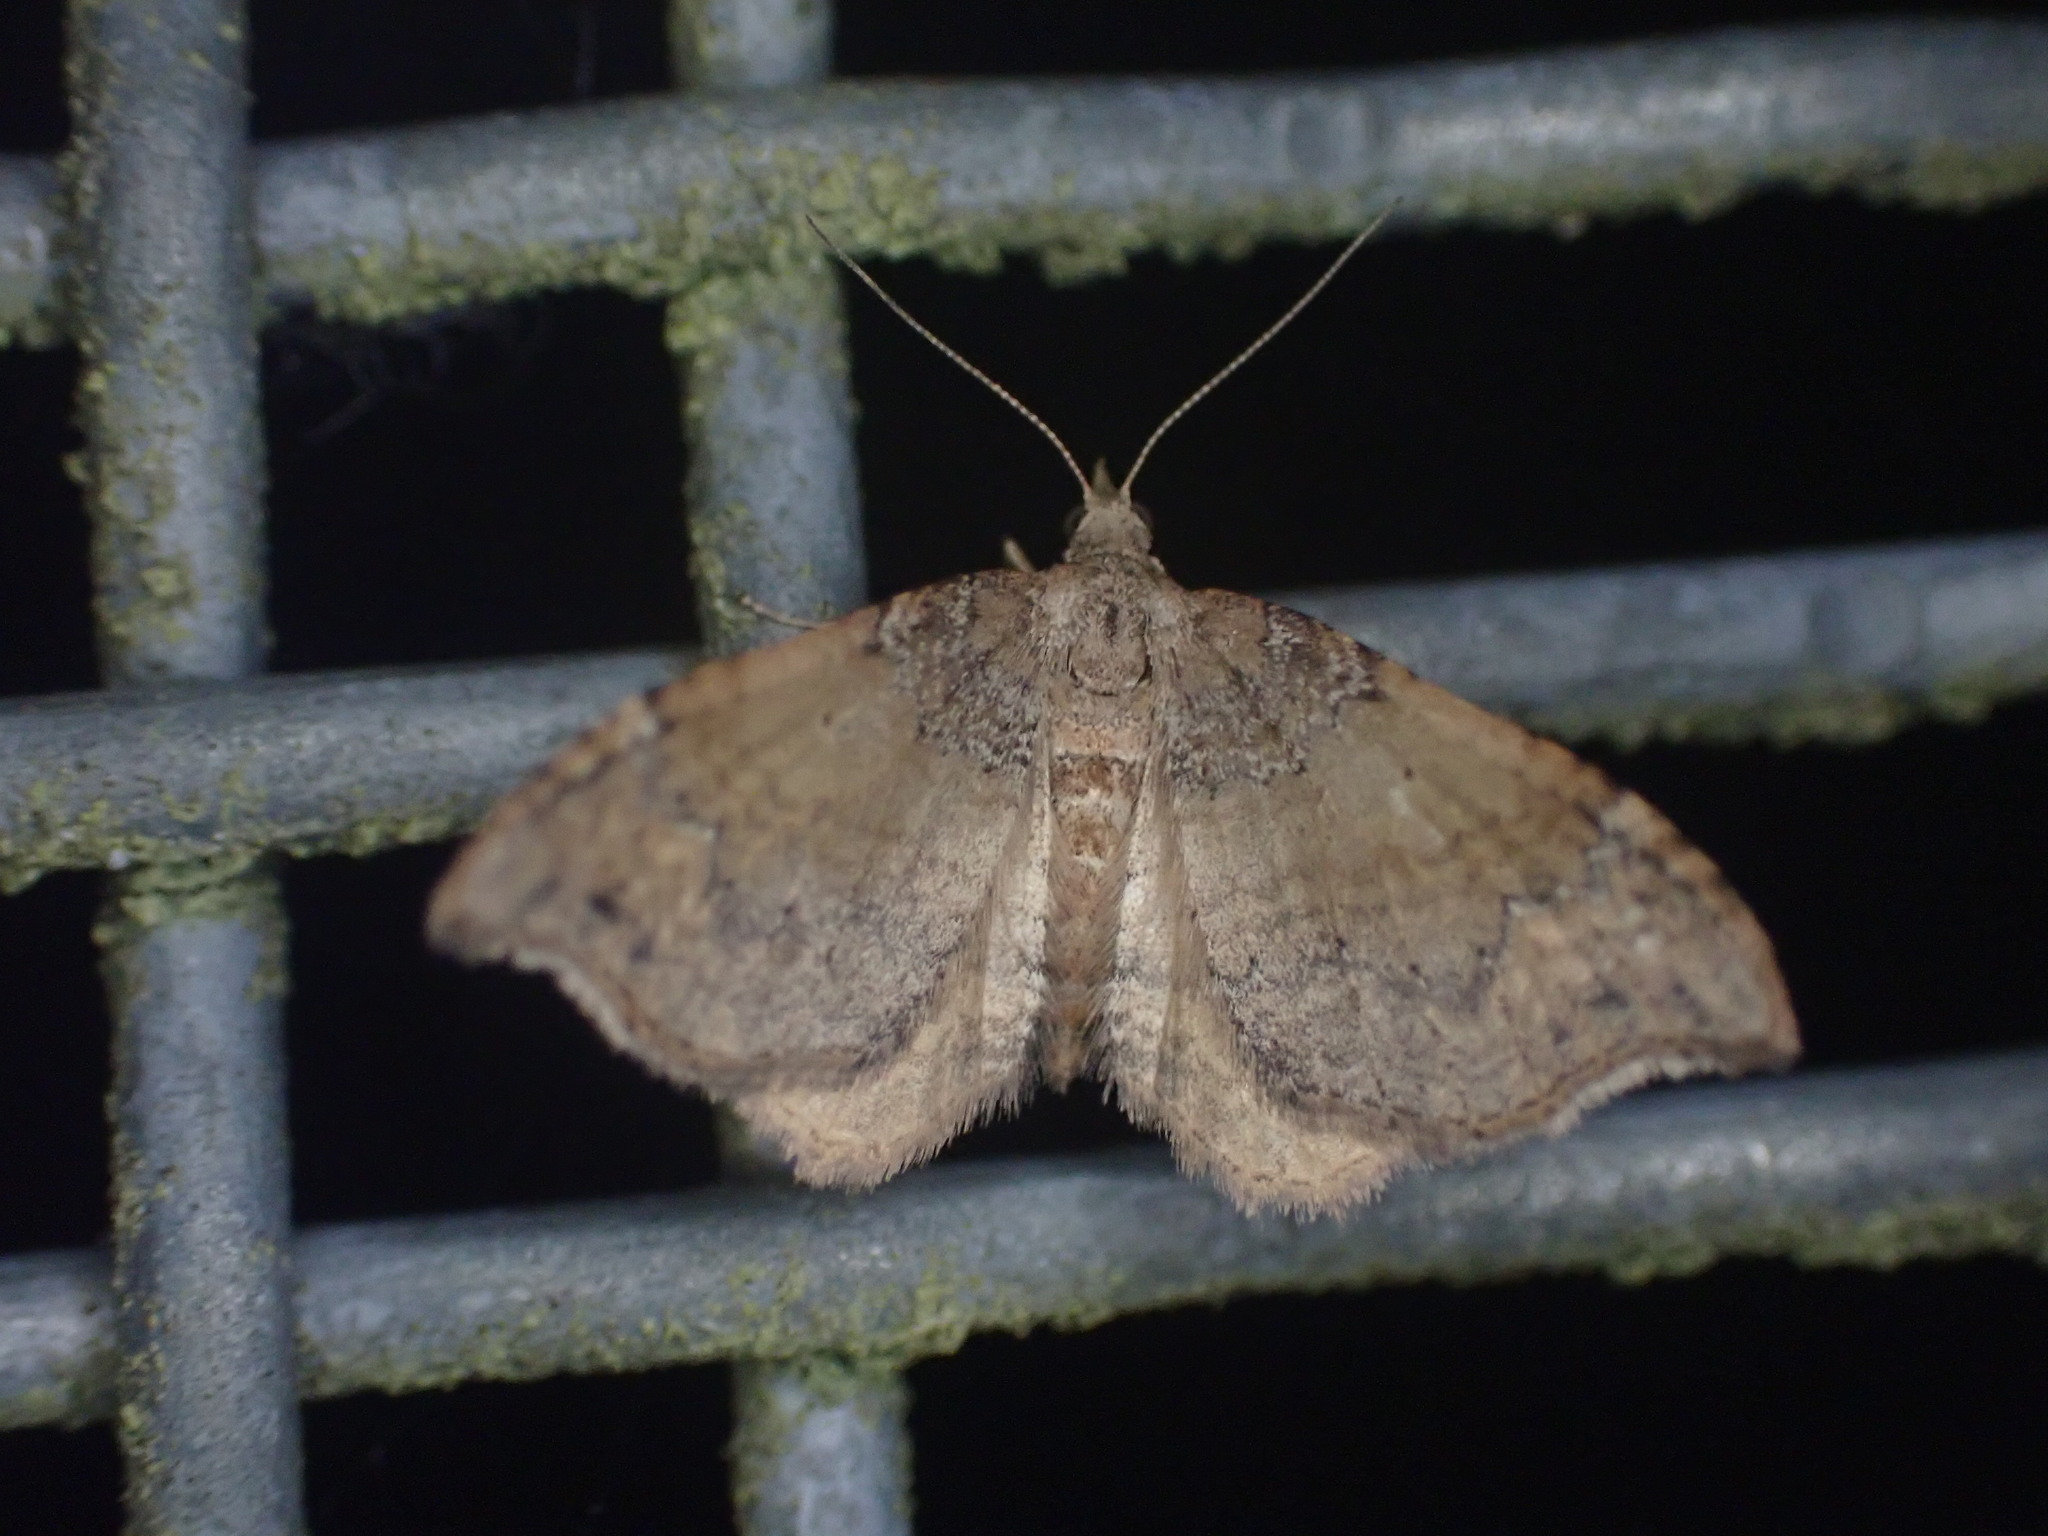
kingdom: Animalia
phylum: Arthropoda
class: Insecta
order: Lepidoptera
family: Geometridae
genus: Homodotis
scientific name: Homodotis megaspilata
